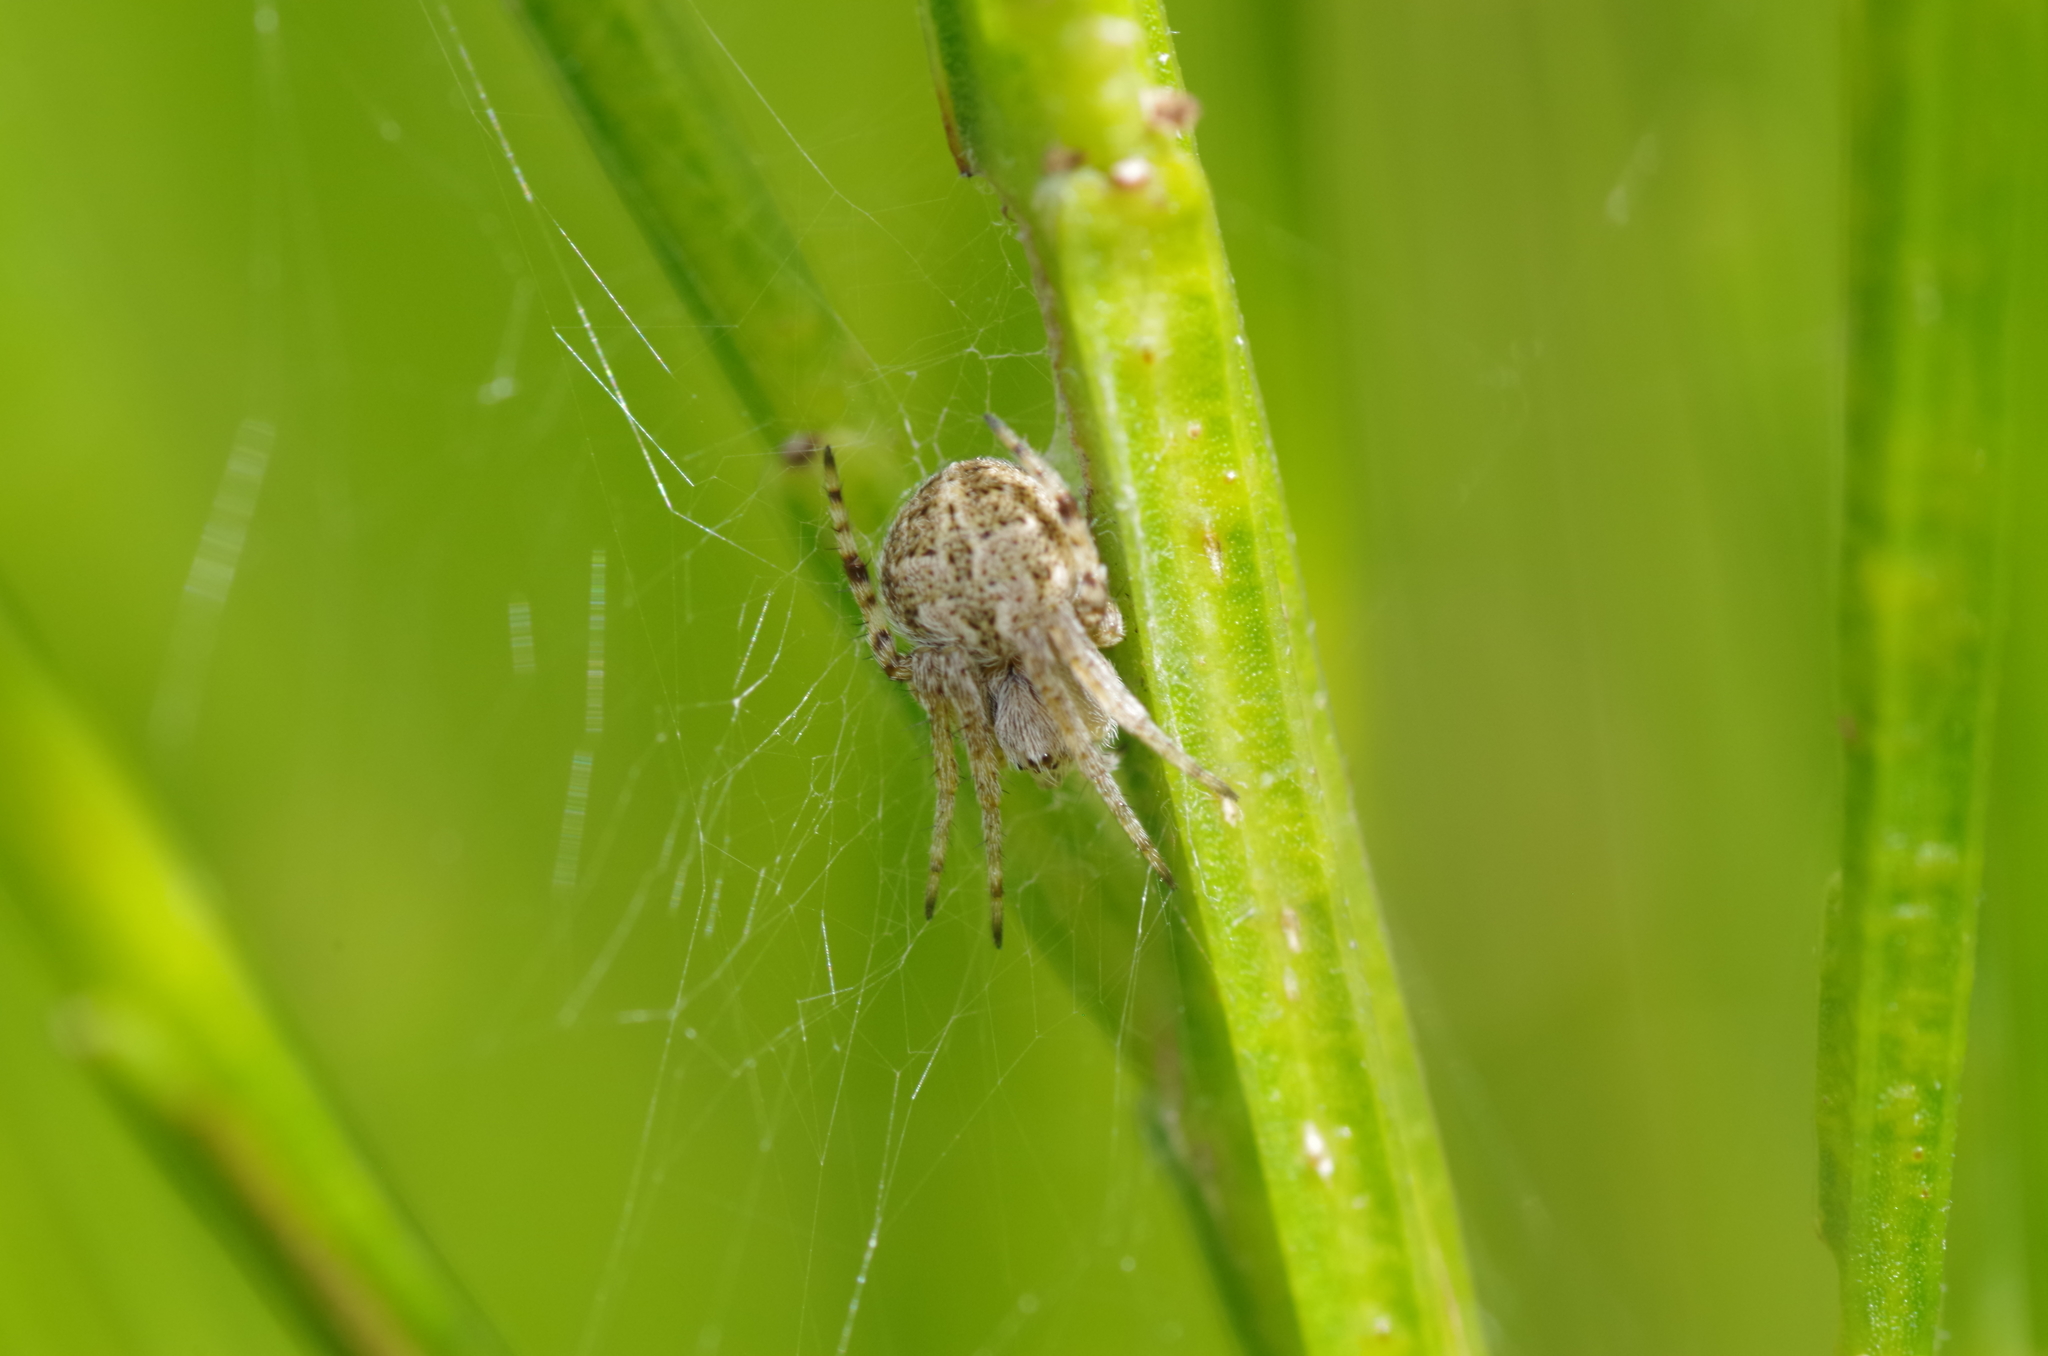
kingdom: Animalia
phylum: Arthropoda
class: Arachnida
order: Araneae
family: Araneidae
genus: Agalenatea
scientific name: Agalenatea redii
